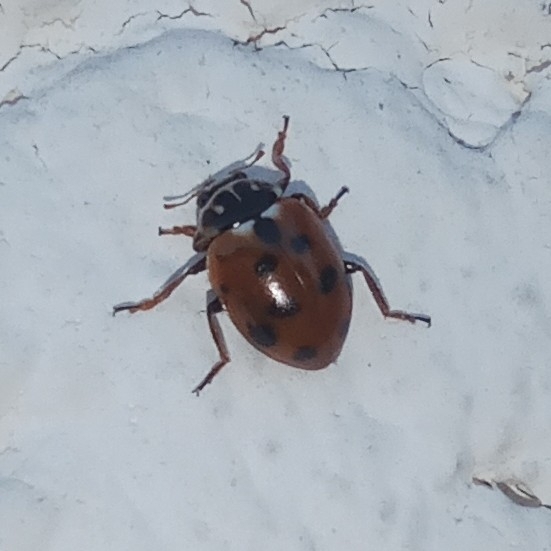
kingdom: Animalia
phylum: Arthropoda
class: Insecta
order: Coleoptera
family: Coccinellidae
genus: Hippodamia
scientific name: Hippodamia variegata
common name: Ladybird beetle
